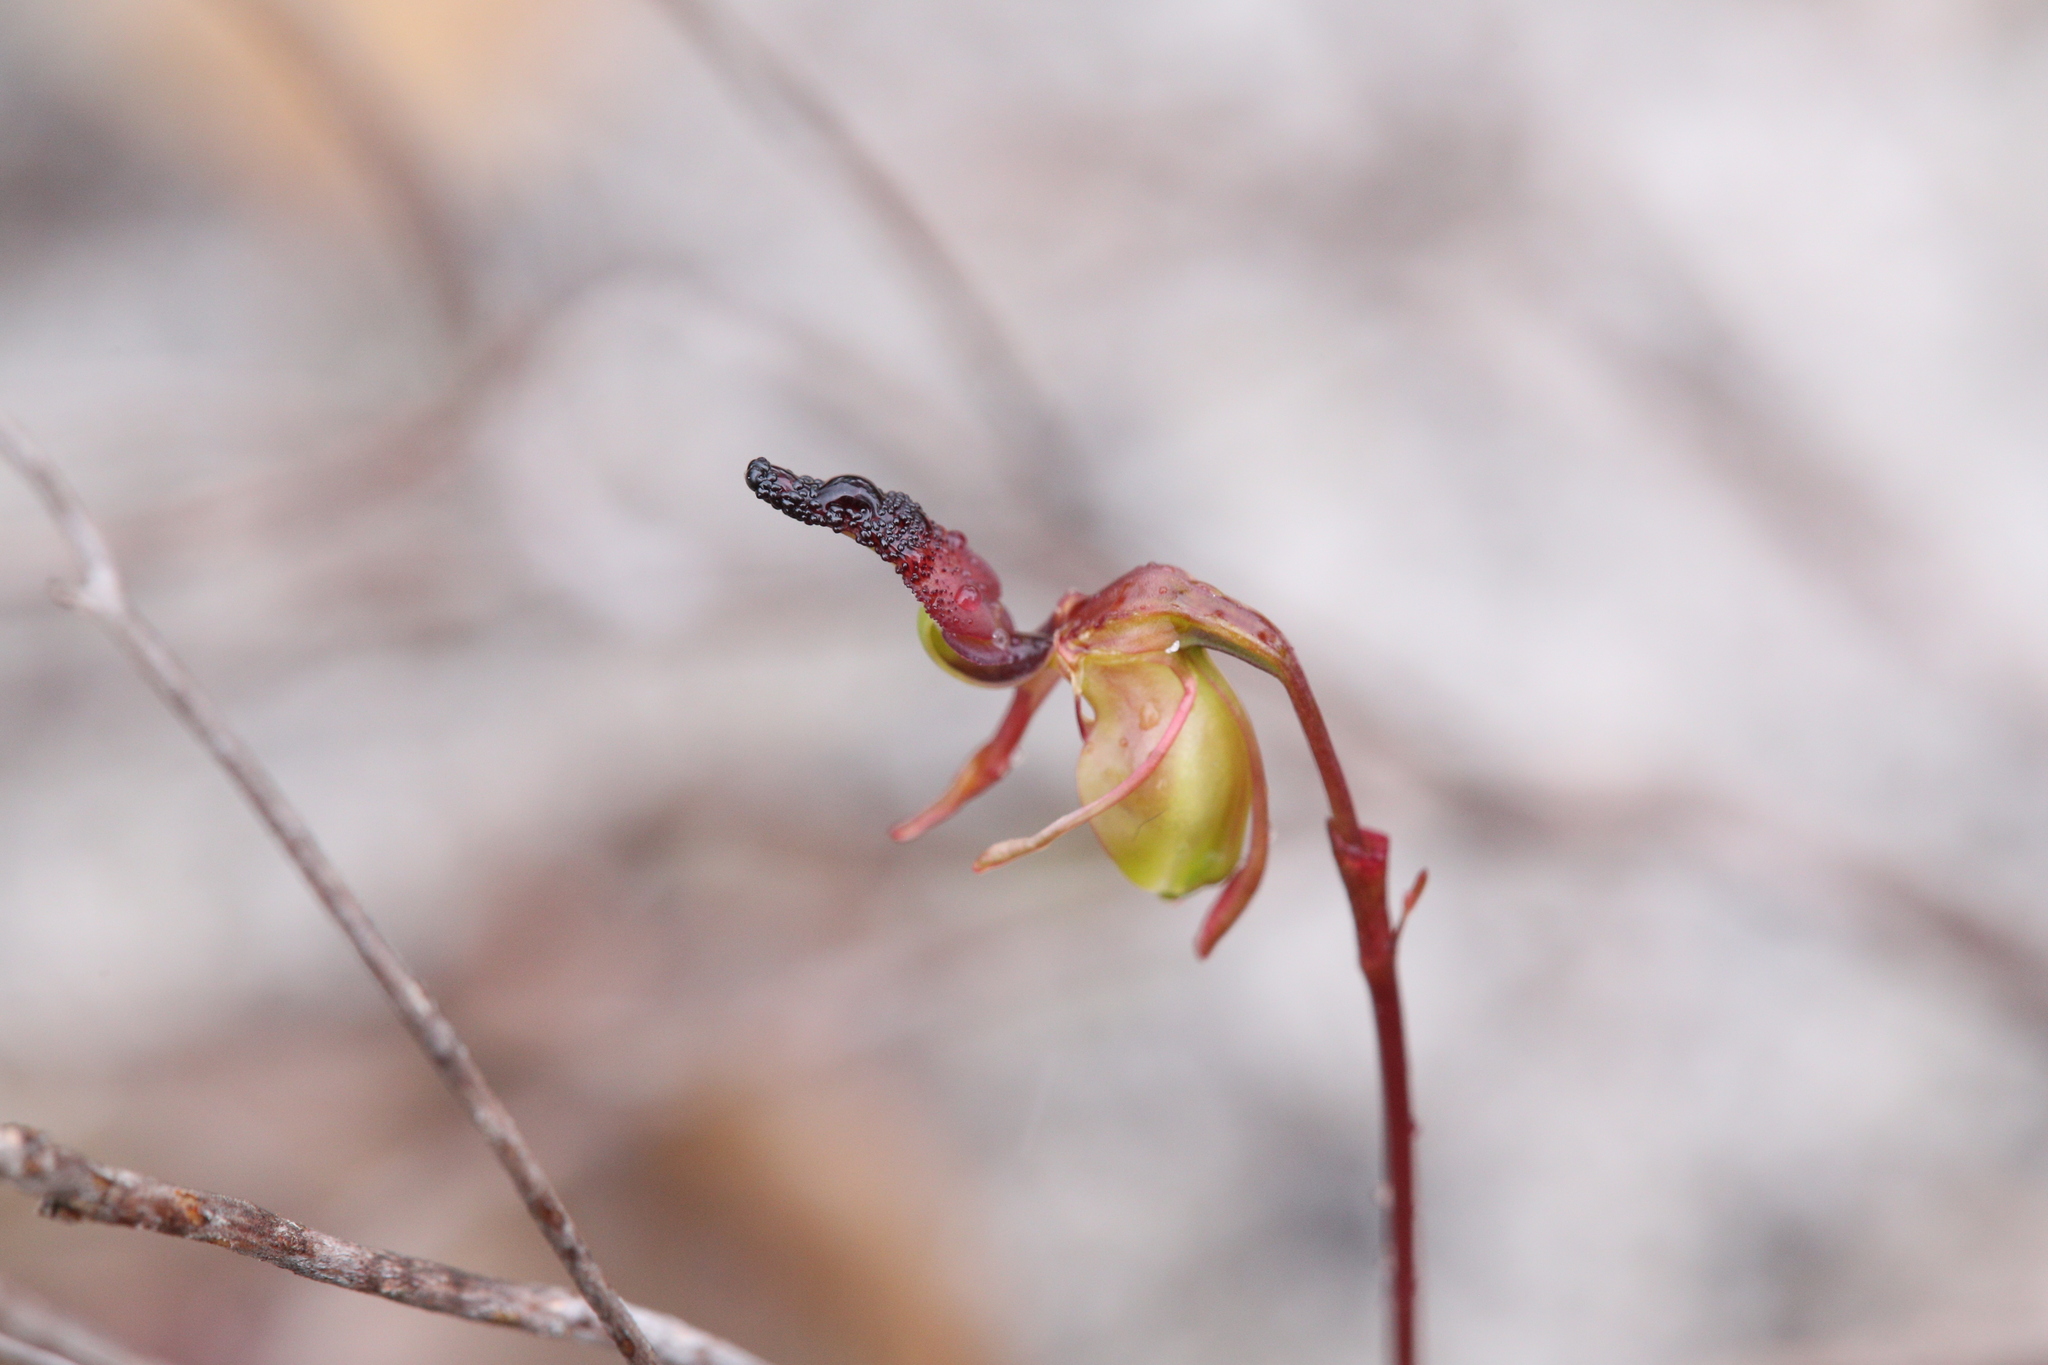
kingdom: Plantae
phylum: Tracheophyta
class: Liliopsida
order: Asparagales
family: Orchidaceae
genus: Caleana
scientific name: Caleana nigrita
